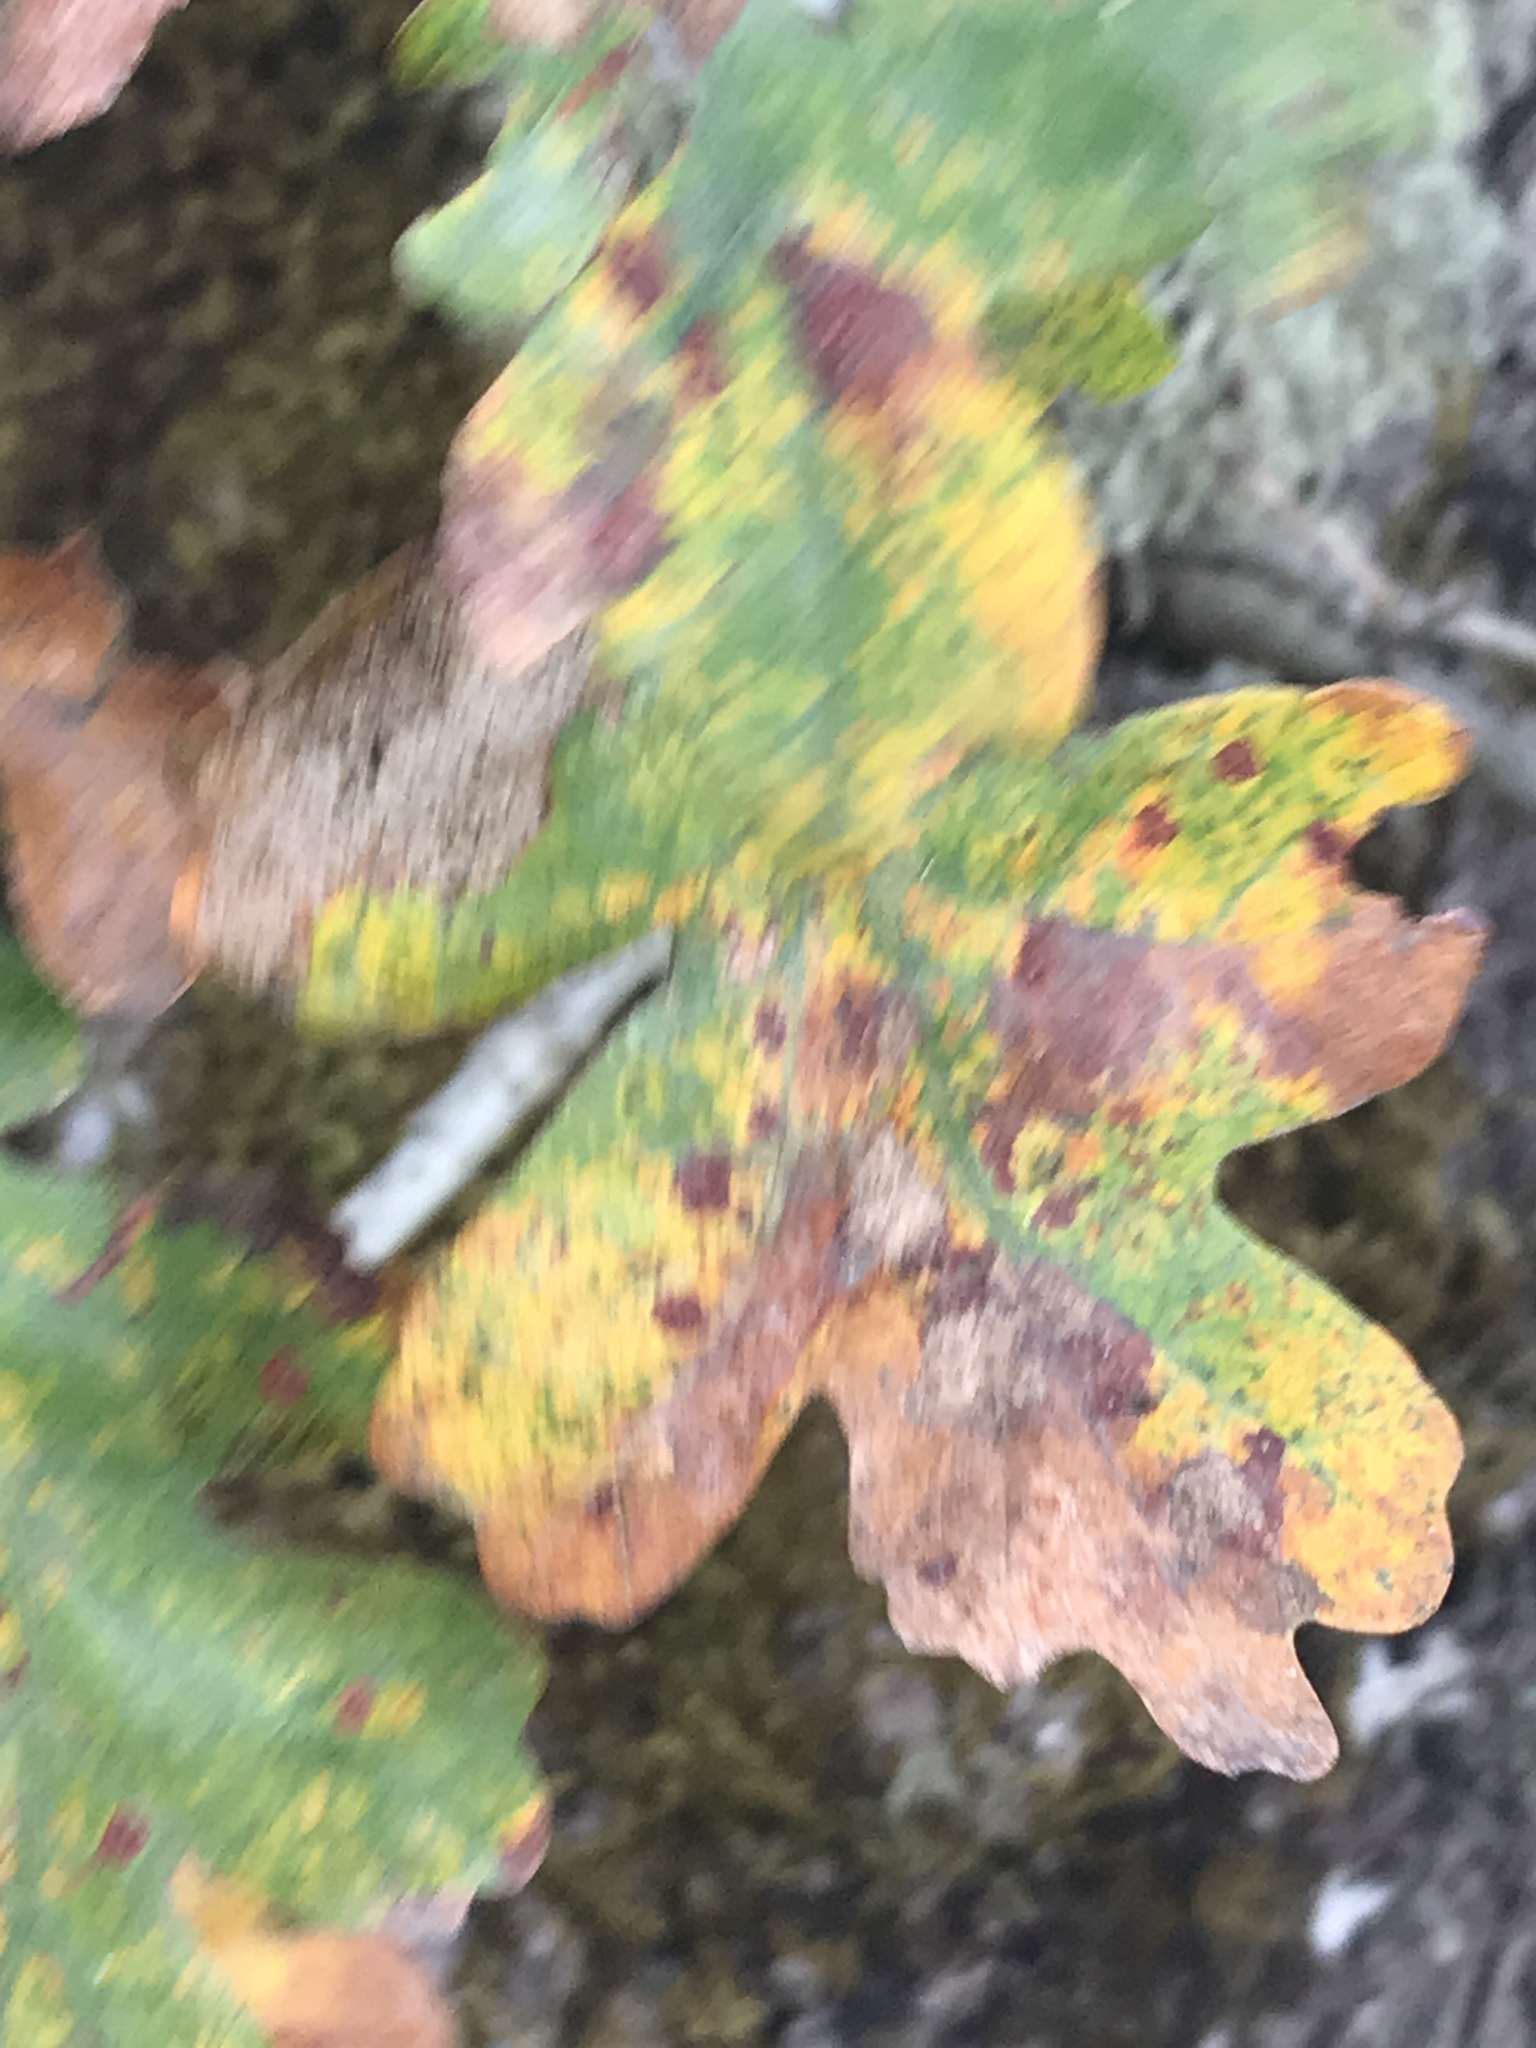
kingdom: Plantae
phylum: Tracheophyta
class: Magnoliopsida
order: Fagales
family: Fagaceae
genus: Quercus
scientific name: Quercus garryana
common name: Garry oak
